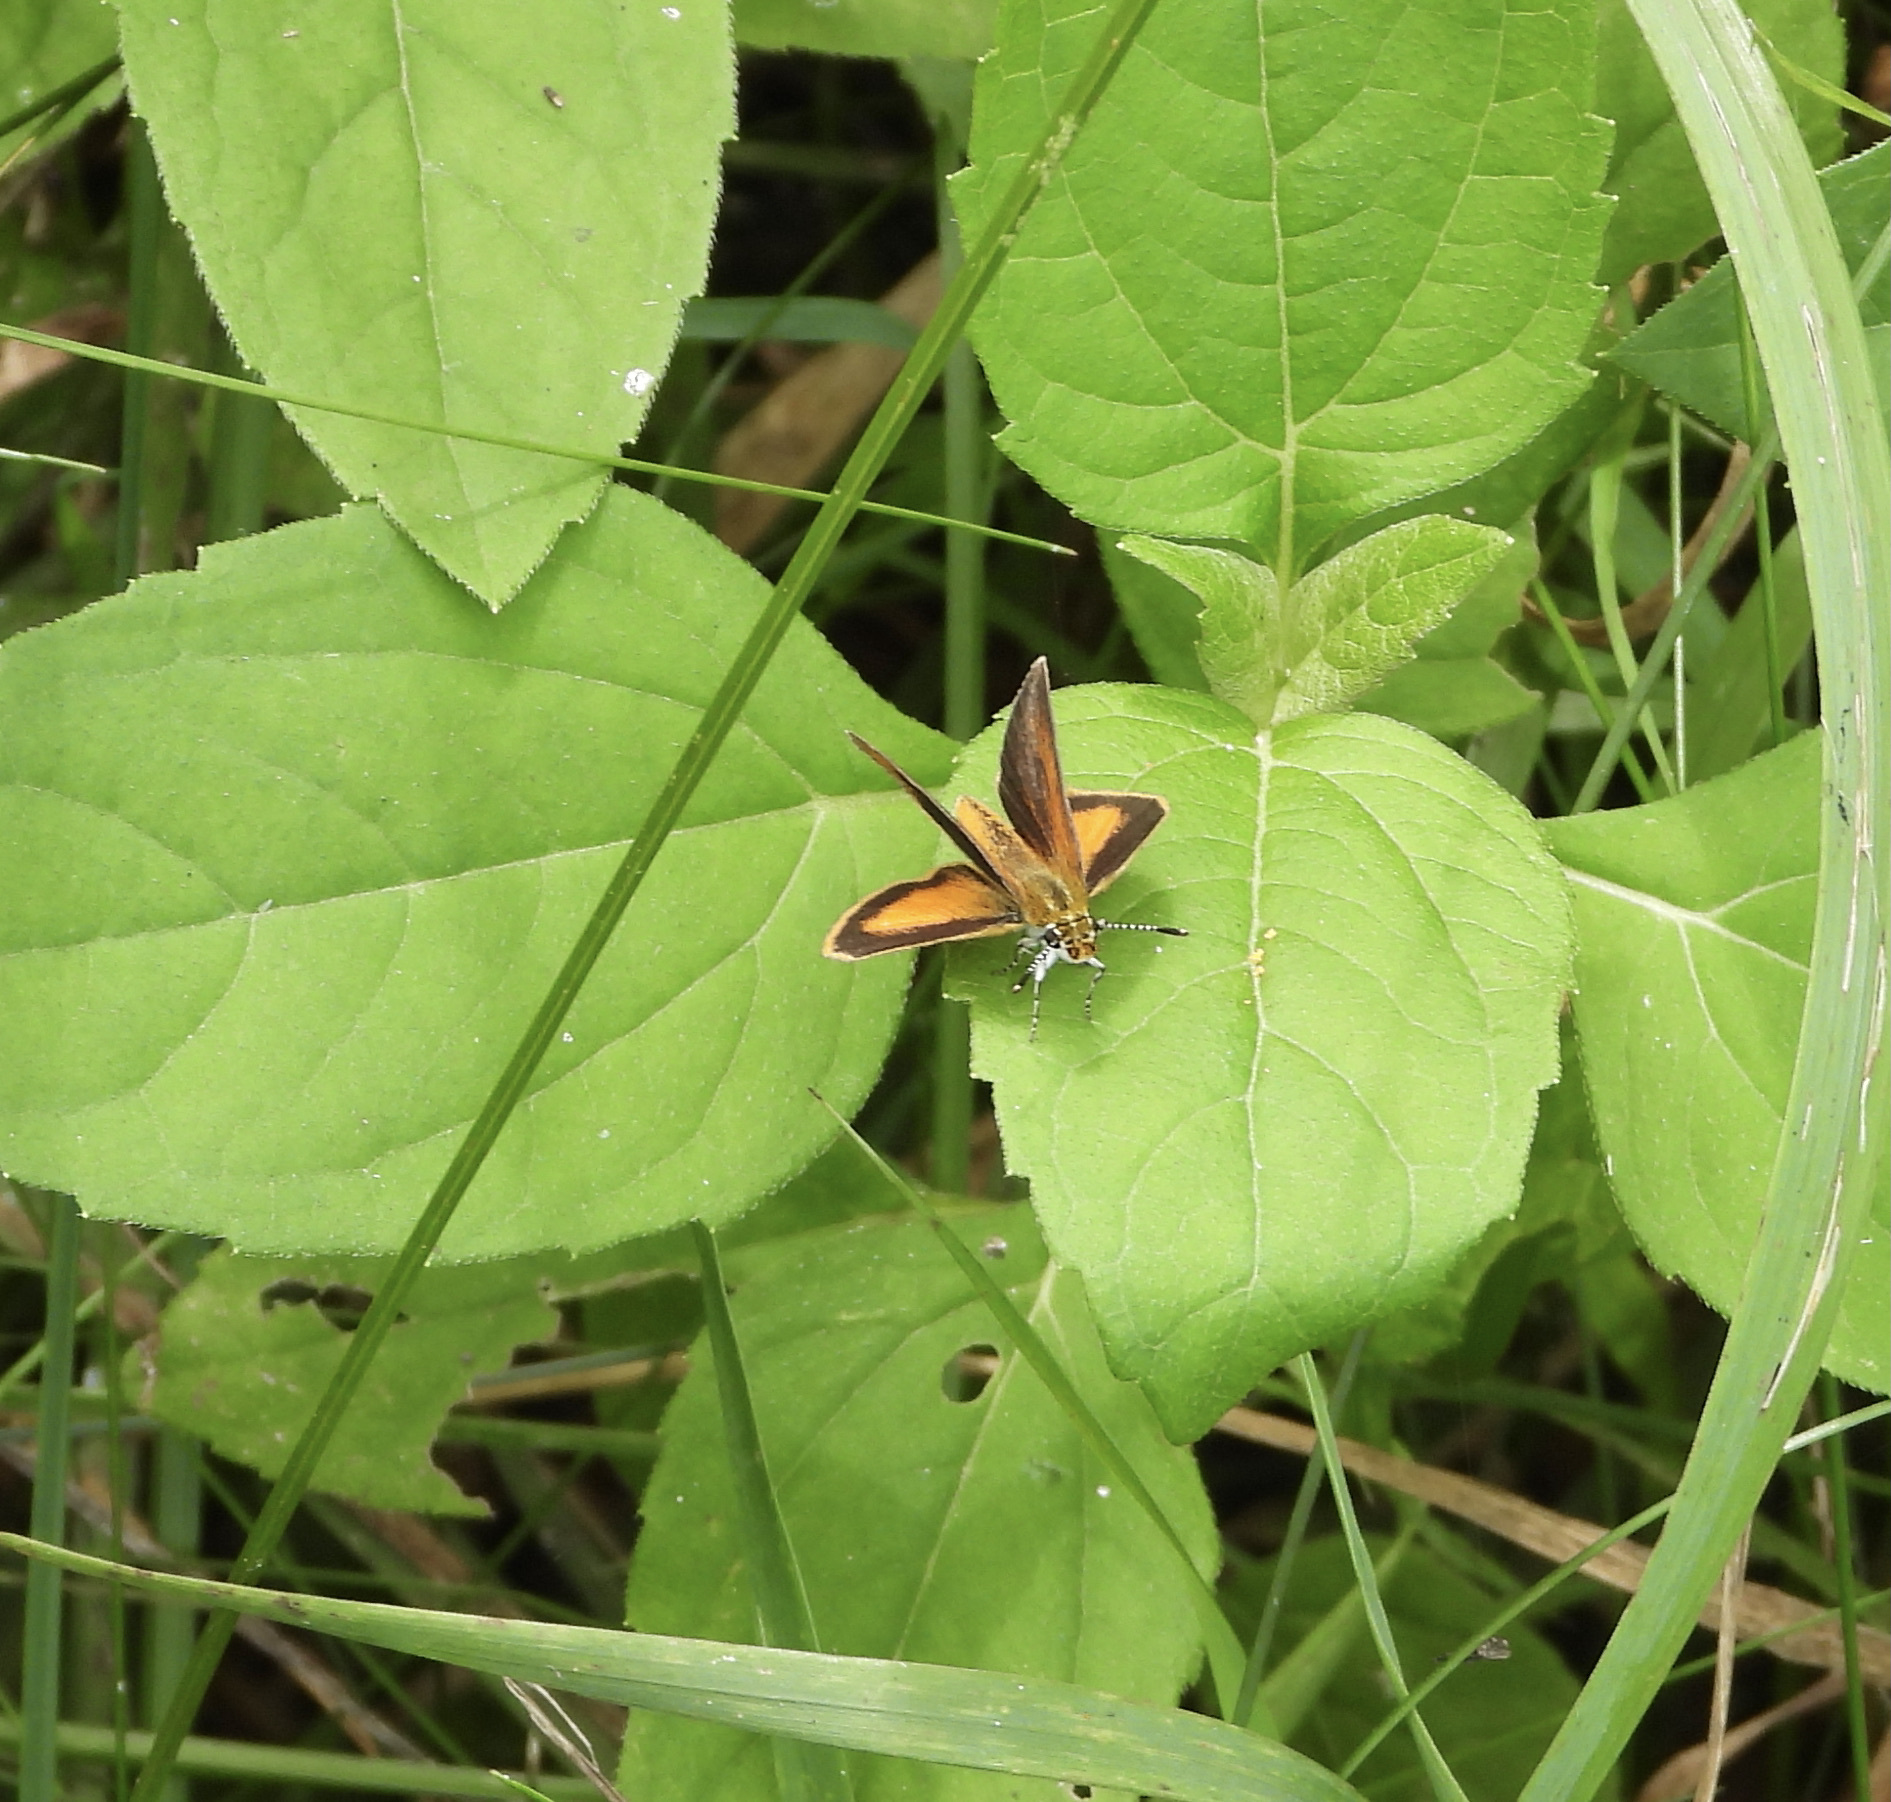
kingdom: Animalia
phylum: Arthropoda
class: Insecta
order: Lepidoptera
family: Hesperiidae
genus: Ancyloxypha
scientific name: Ancyloxypha numitor
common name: Least skipper
